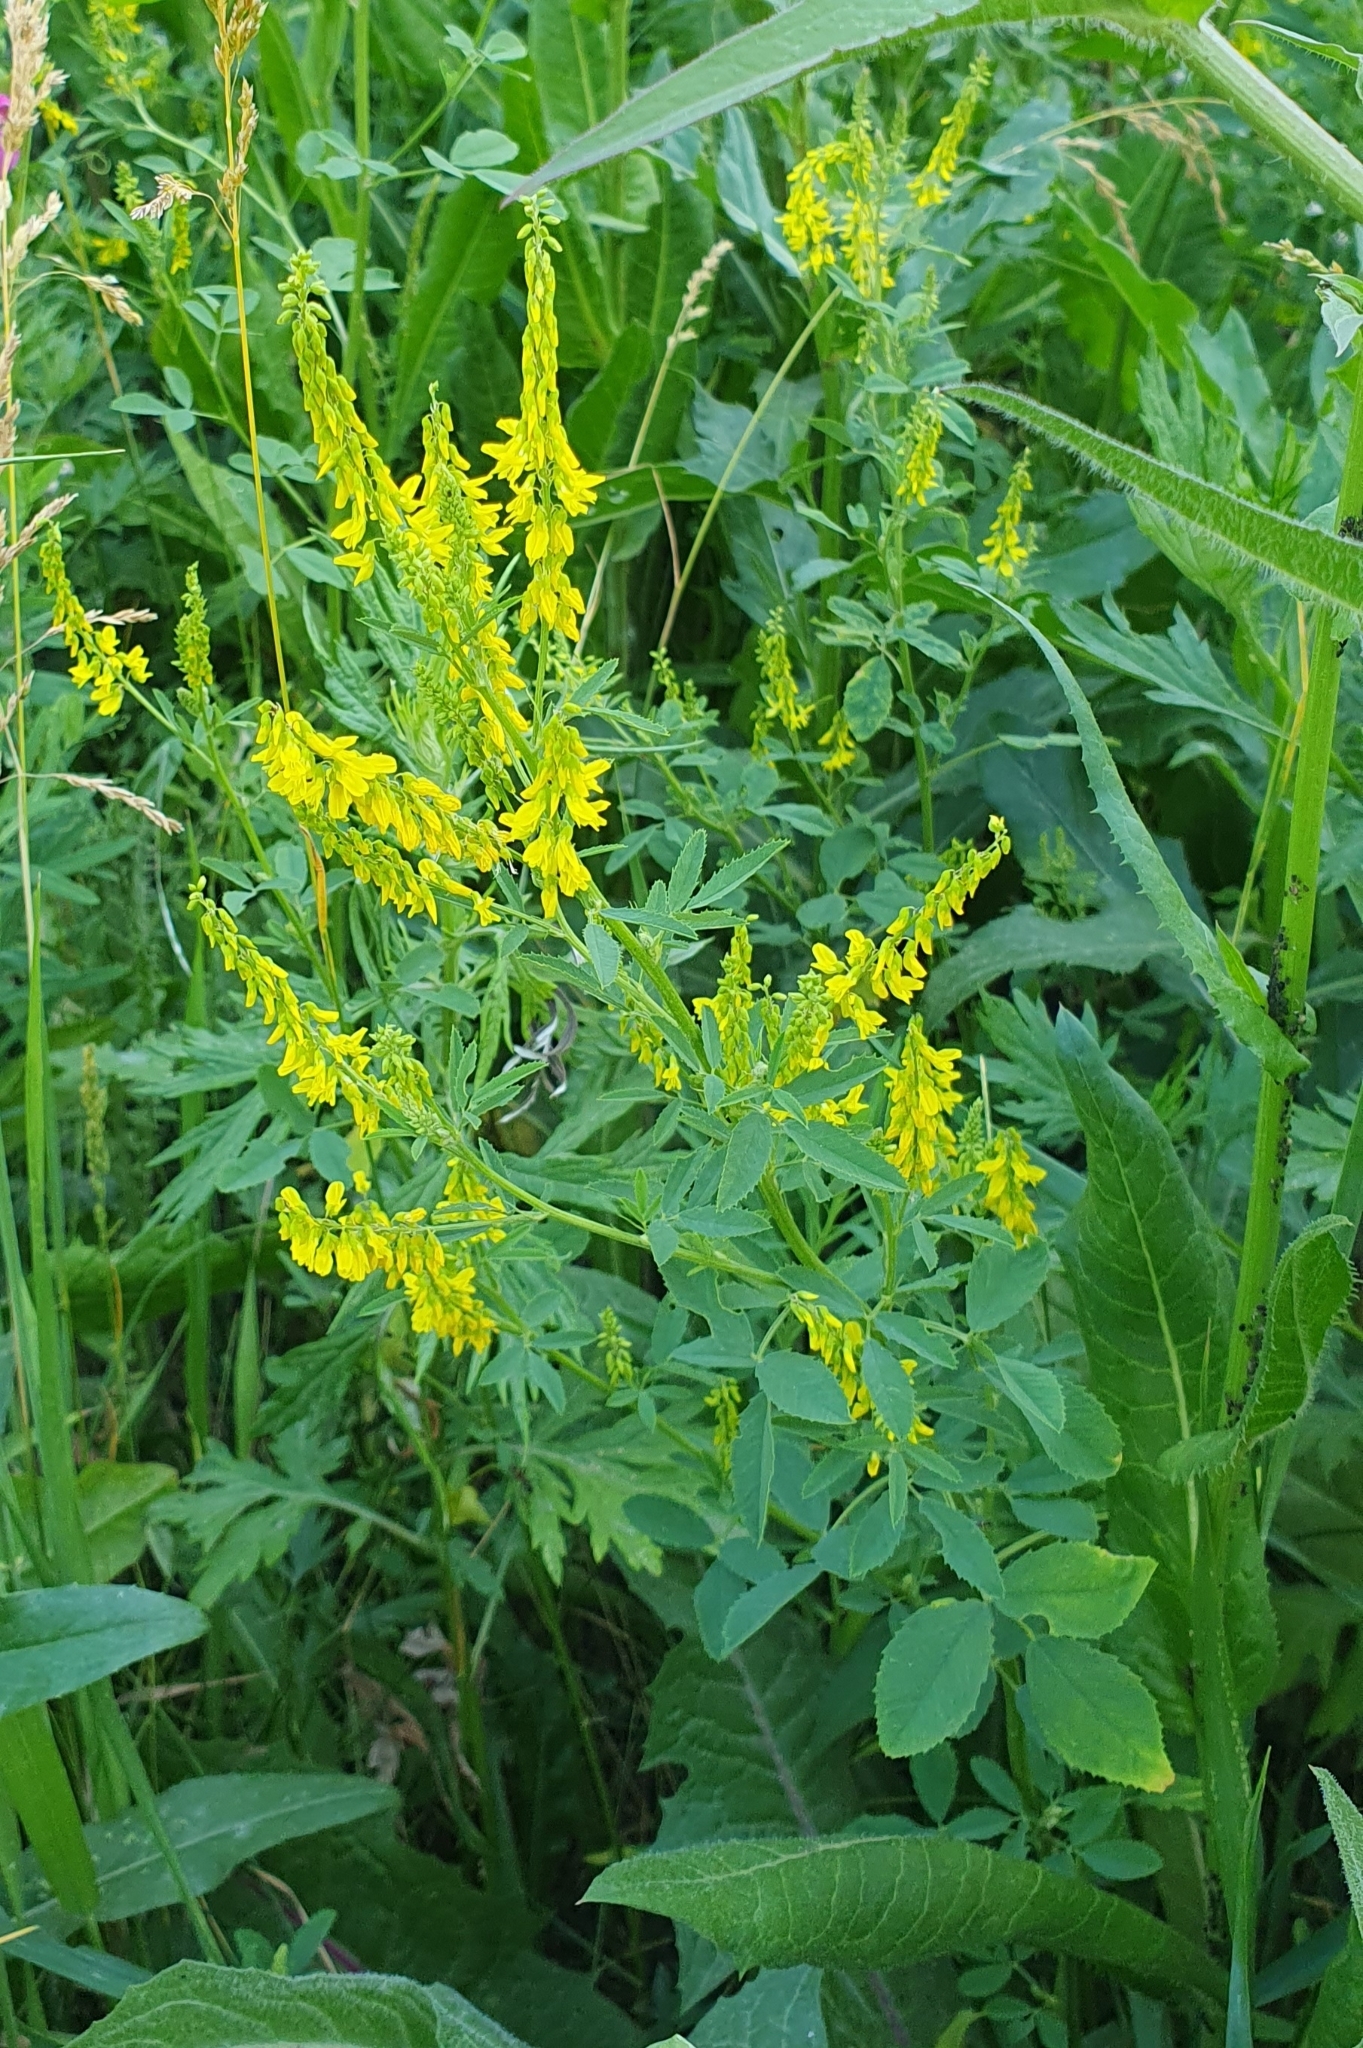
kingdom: Plantae
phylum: Tracheophyta
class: Magnoliopsida
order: Fabales
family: Fabaceae
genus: Melilotus
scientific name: Melilotus officinalis
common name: Sweetclover
